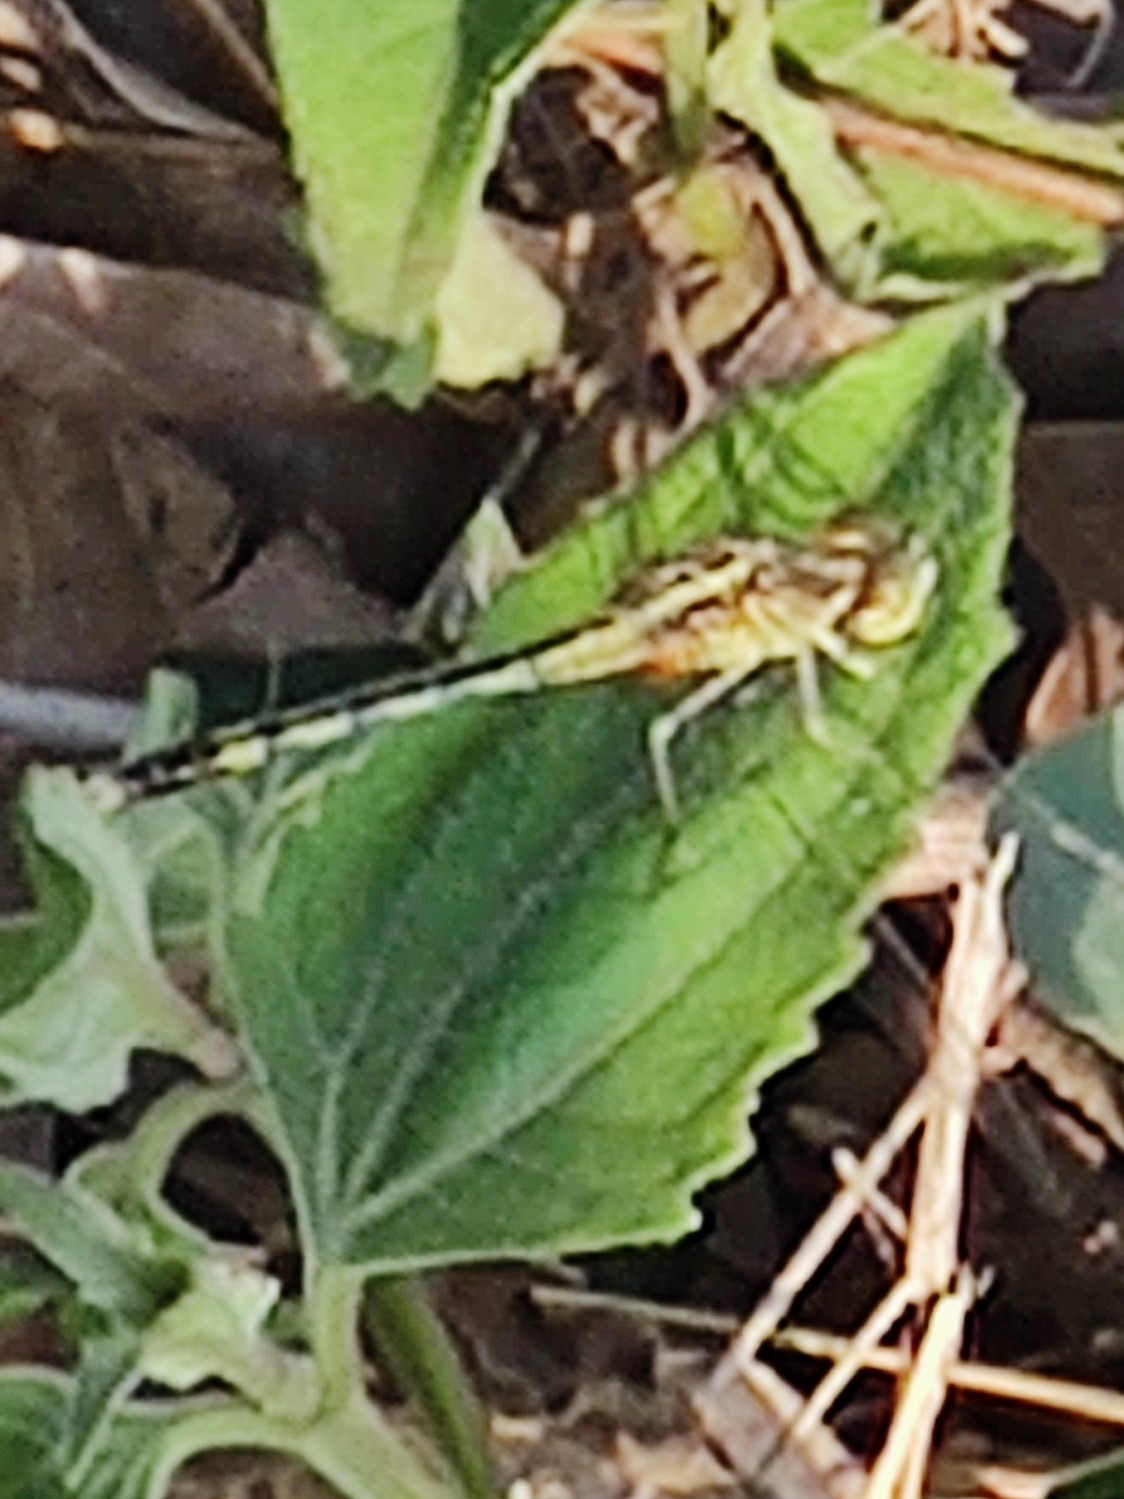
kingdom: Animalia
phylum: Arthropoda
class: Insecta
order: Odonata
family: Libellulidae
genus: Diplacodes
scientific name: Diplacodes trivialis
